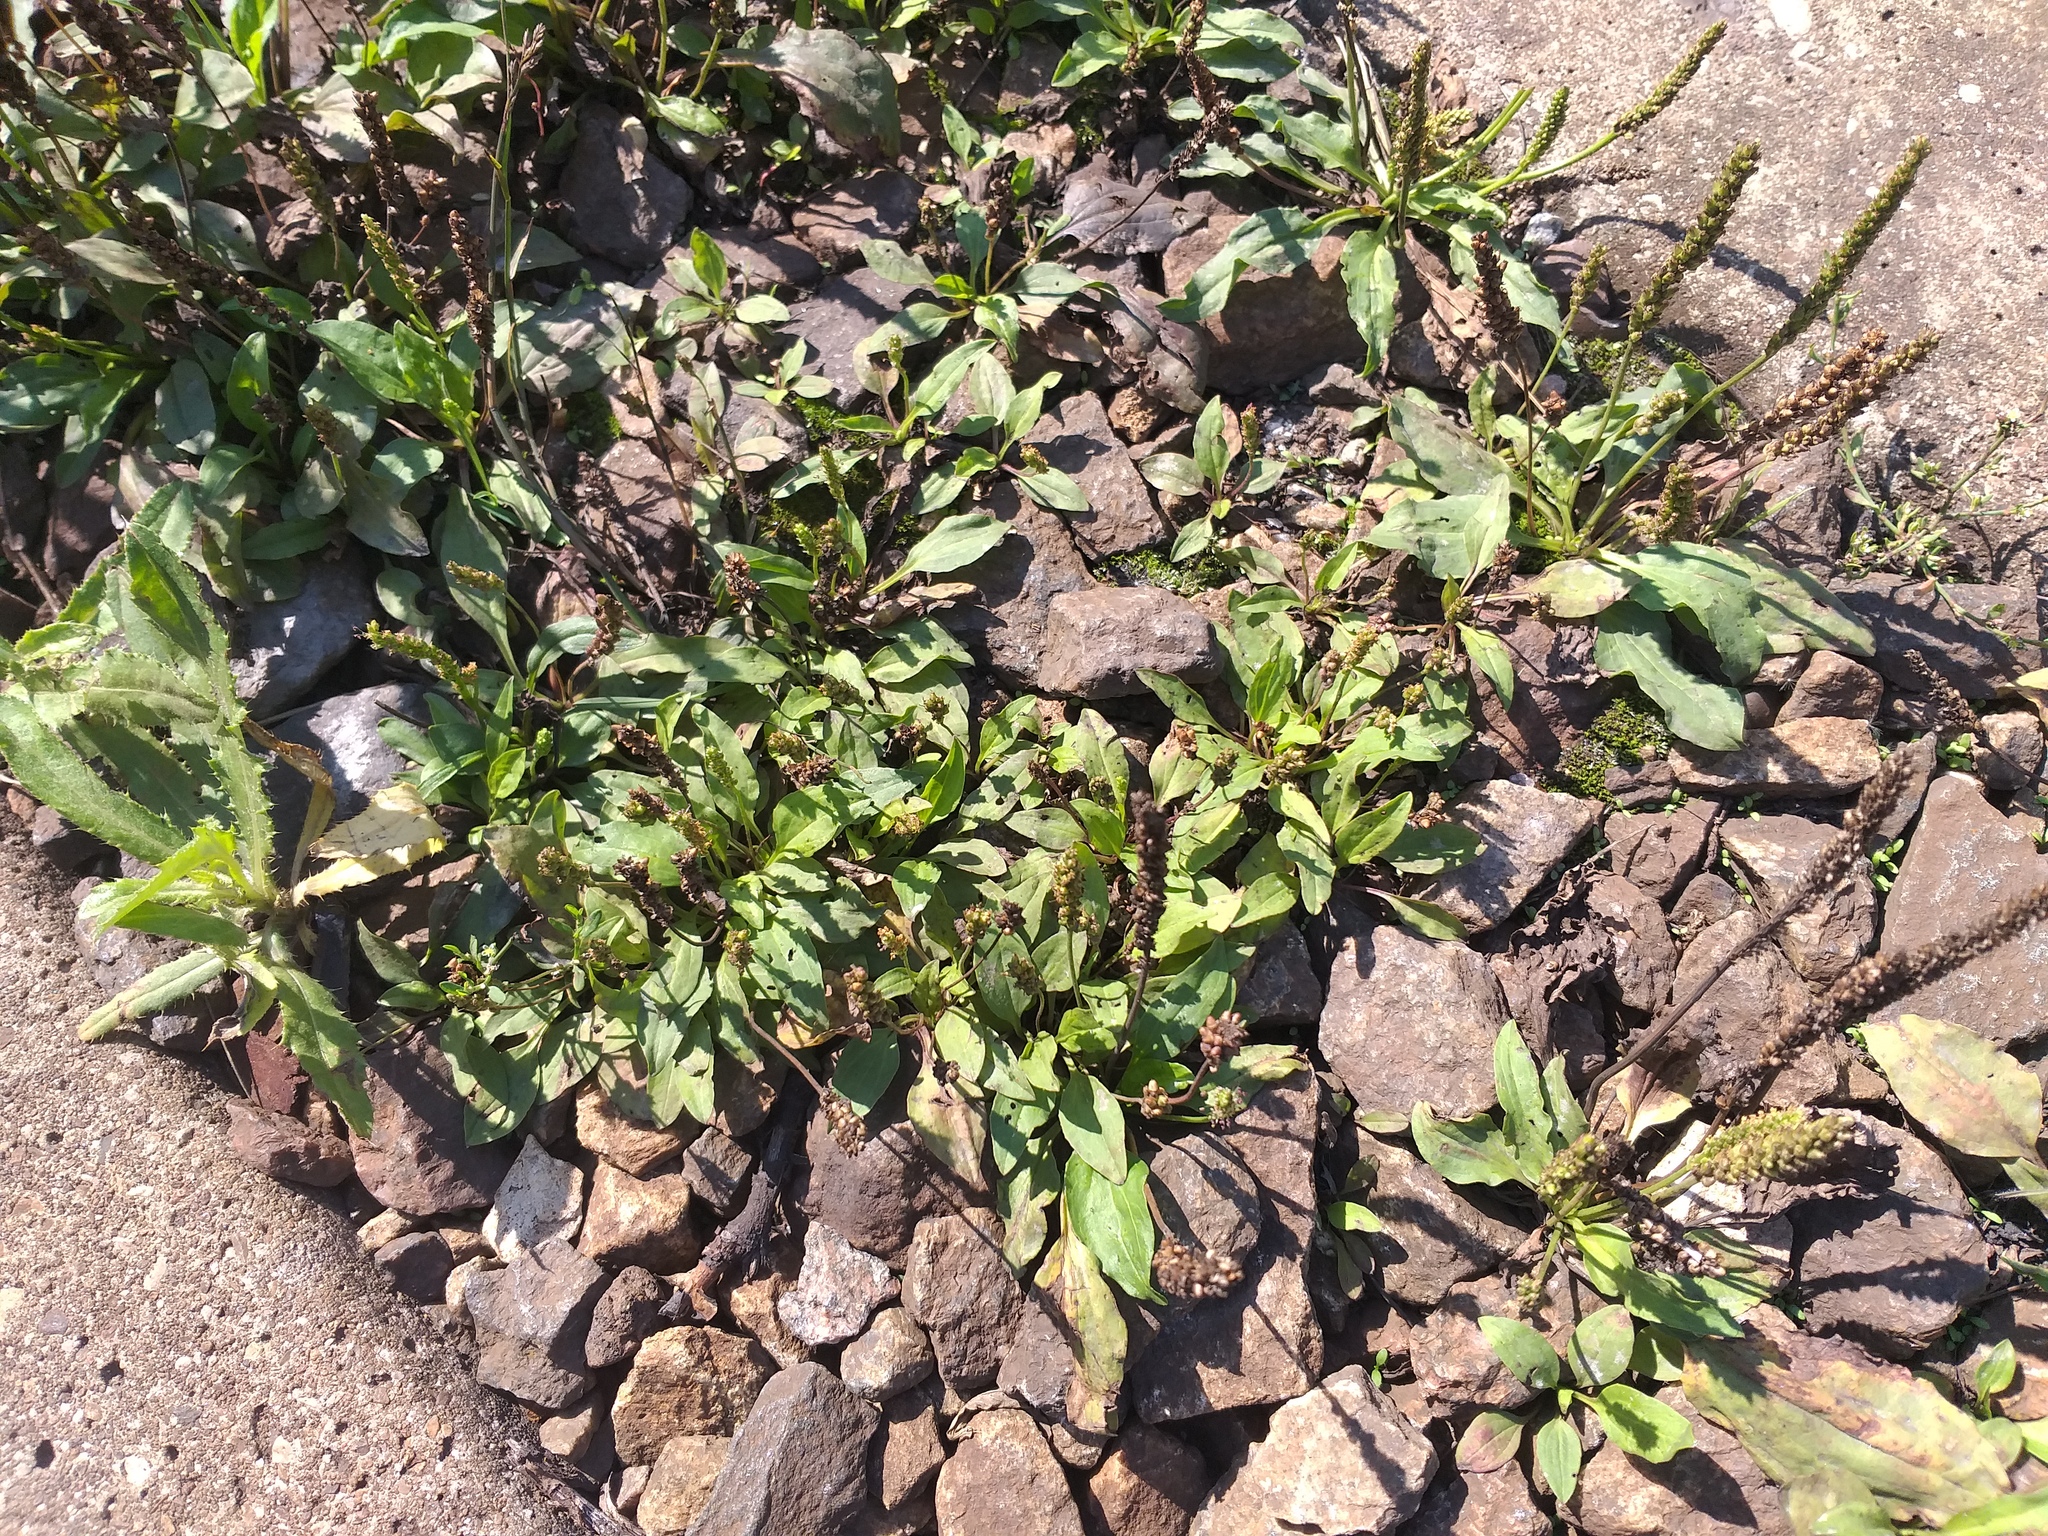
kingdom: Plantae
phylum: Tracheophyta
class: Magnoliopsida
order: Lamiales
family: Plantaginaceae
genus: Plantago
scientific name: Plantago major
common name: Common plantain
